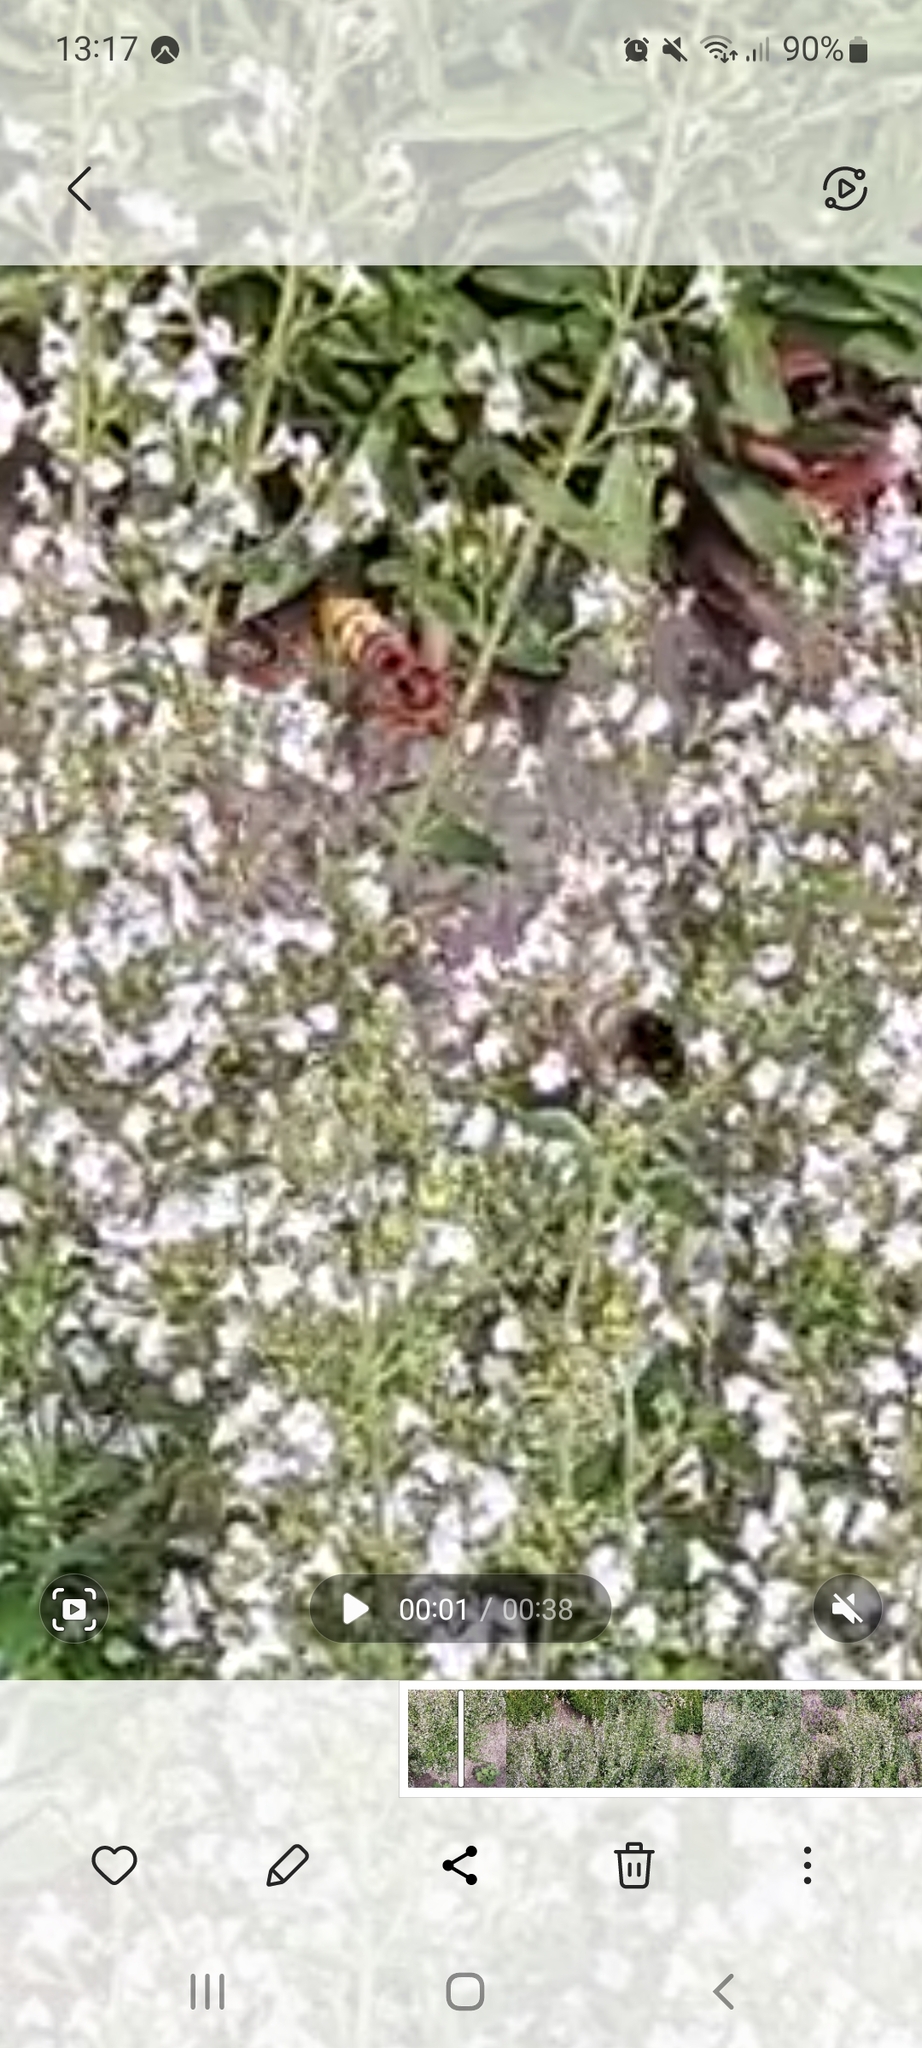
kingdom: Animalia
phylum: Arthropoda
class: Insecta
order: Hymenoptera
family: Vespidae
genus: Vespa
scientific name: Vespa crabro
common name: Hornet
